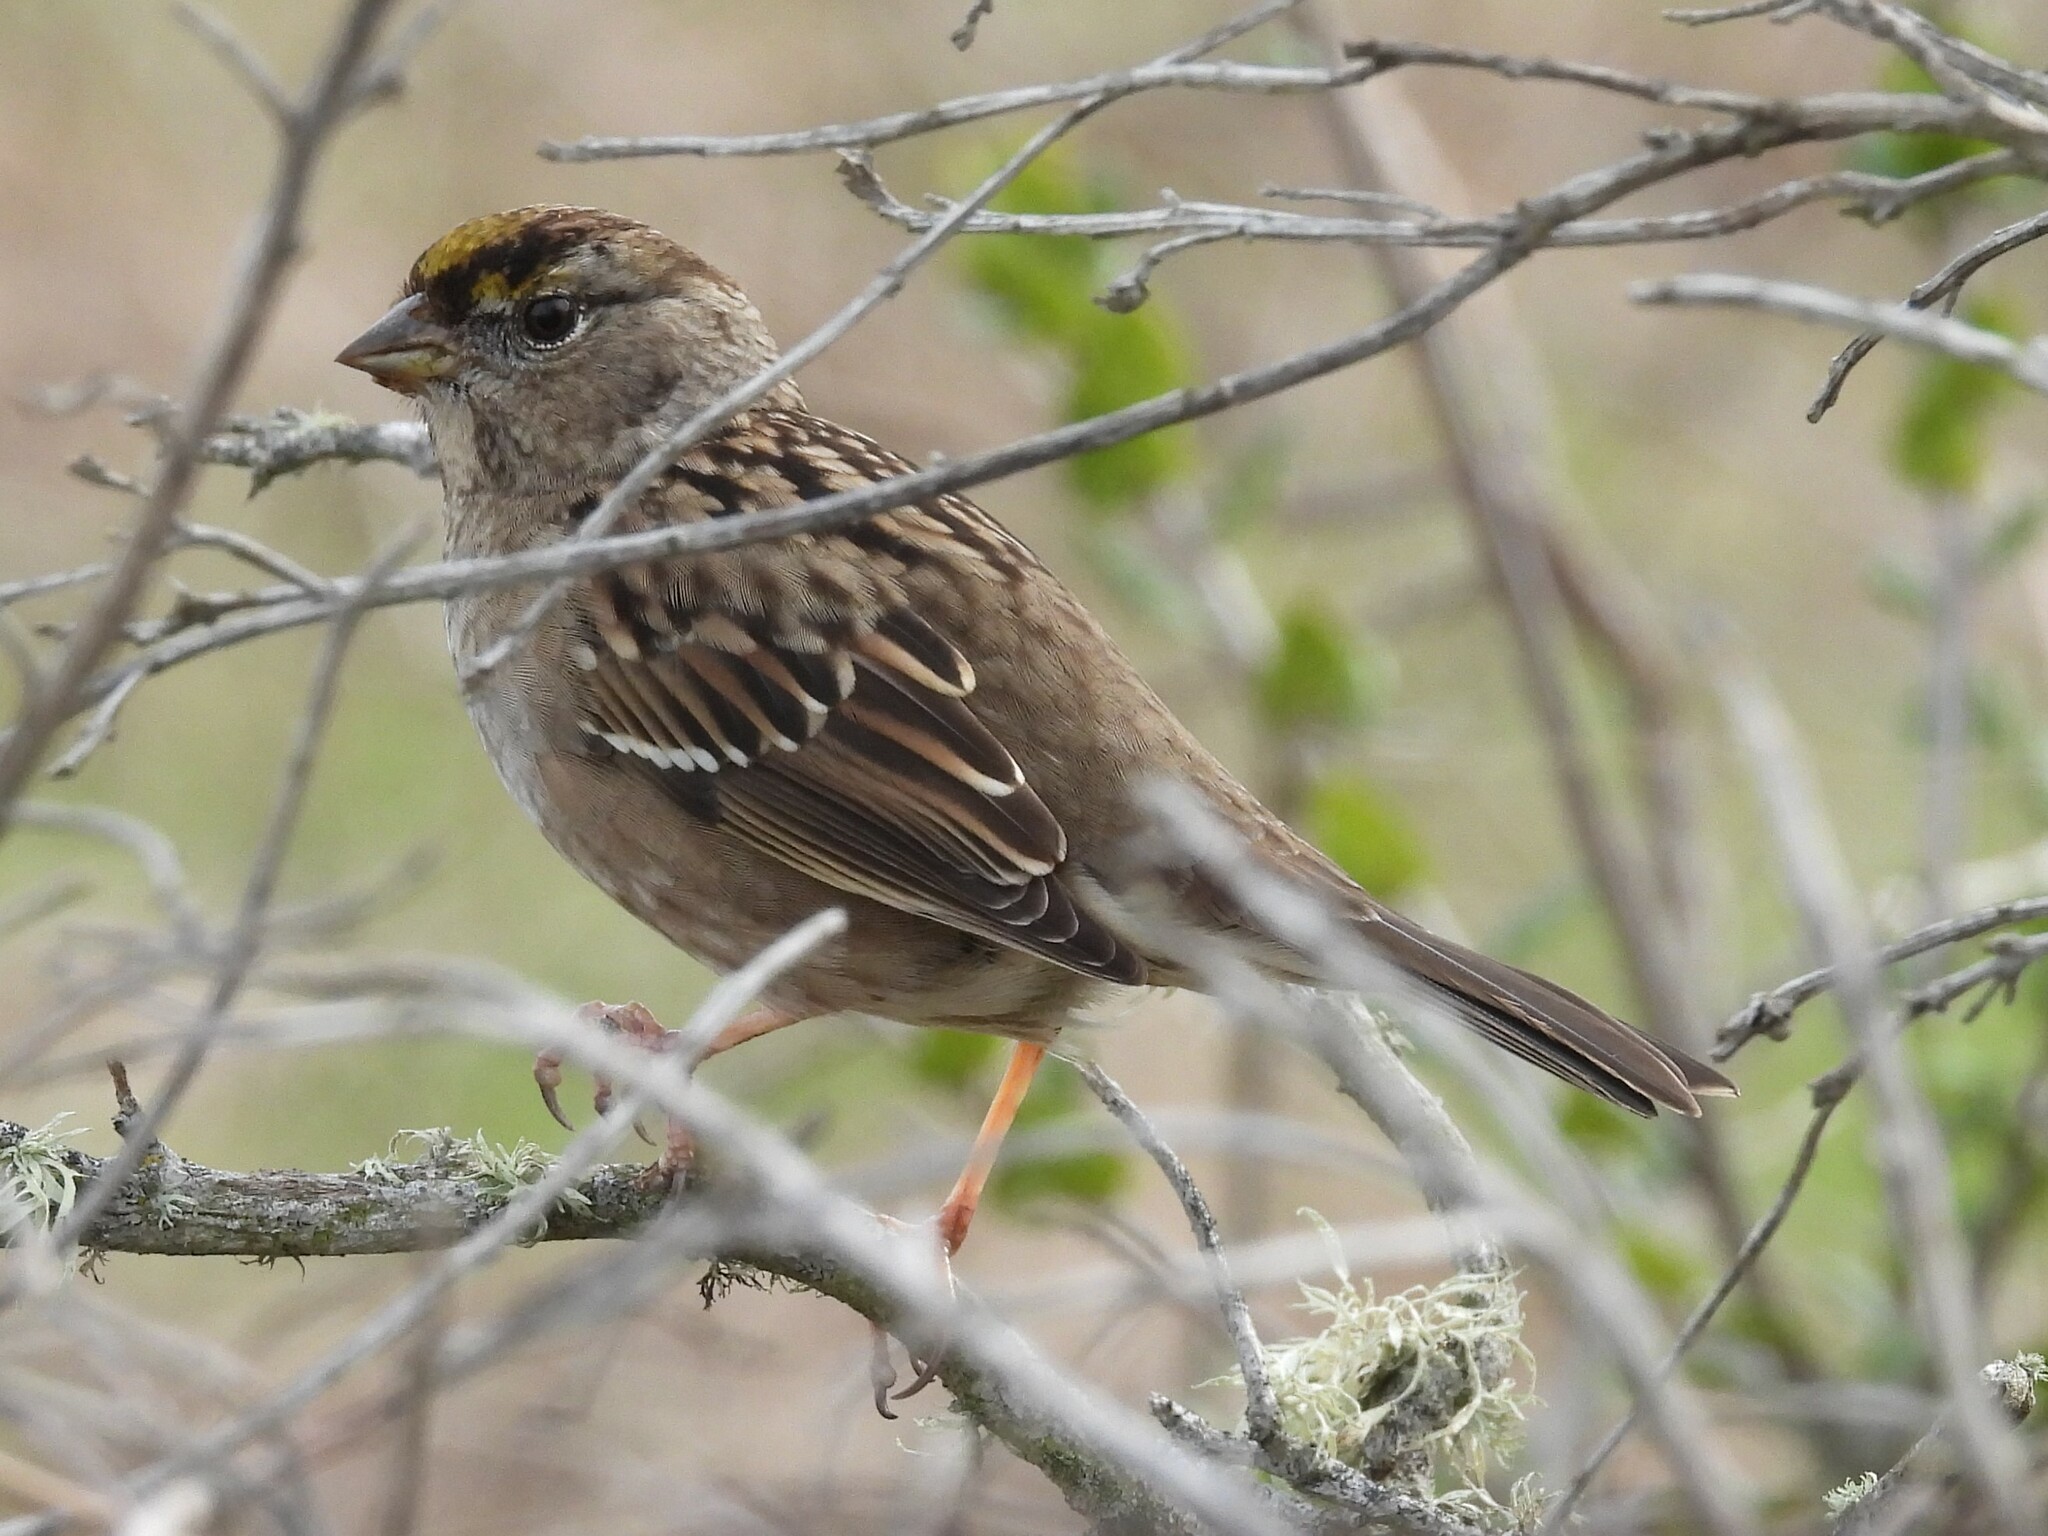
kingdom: Animalia
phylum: Chordata
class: Aves
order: Passeriformes
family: Passerellidae
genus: Zonotrichia
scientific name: Zonotrichia atricapilla
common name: Golden-crowned sparrow
